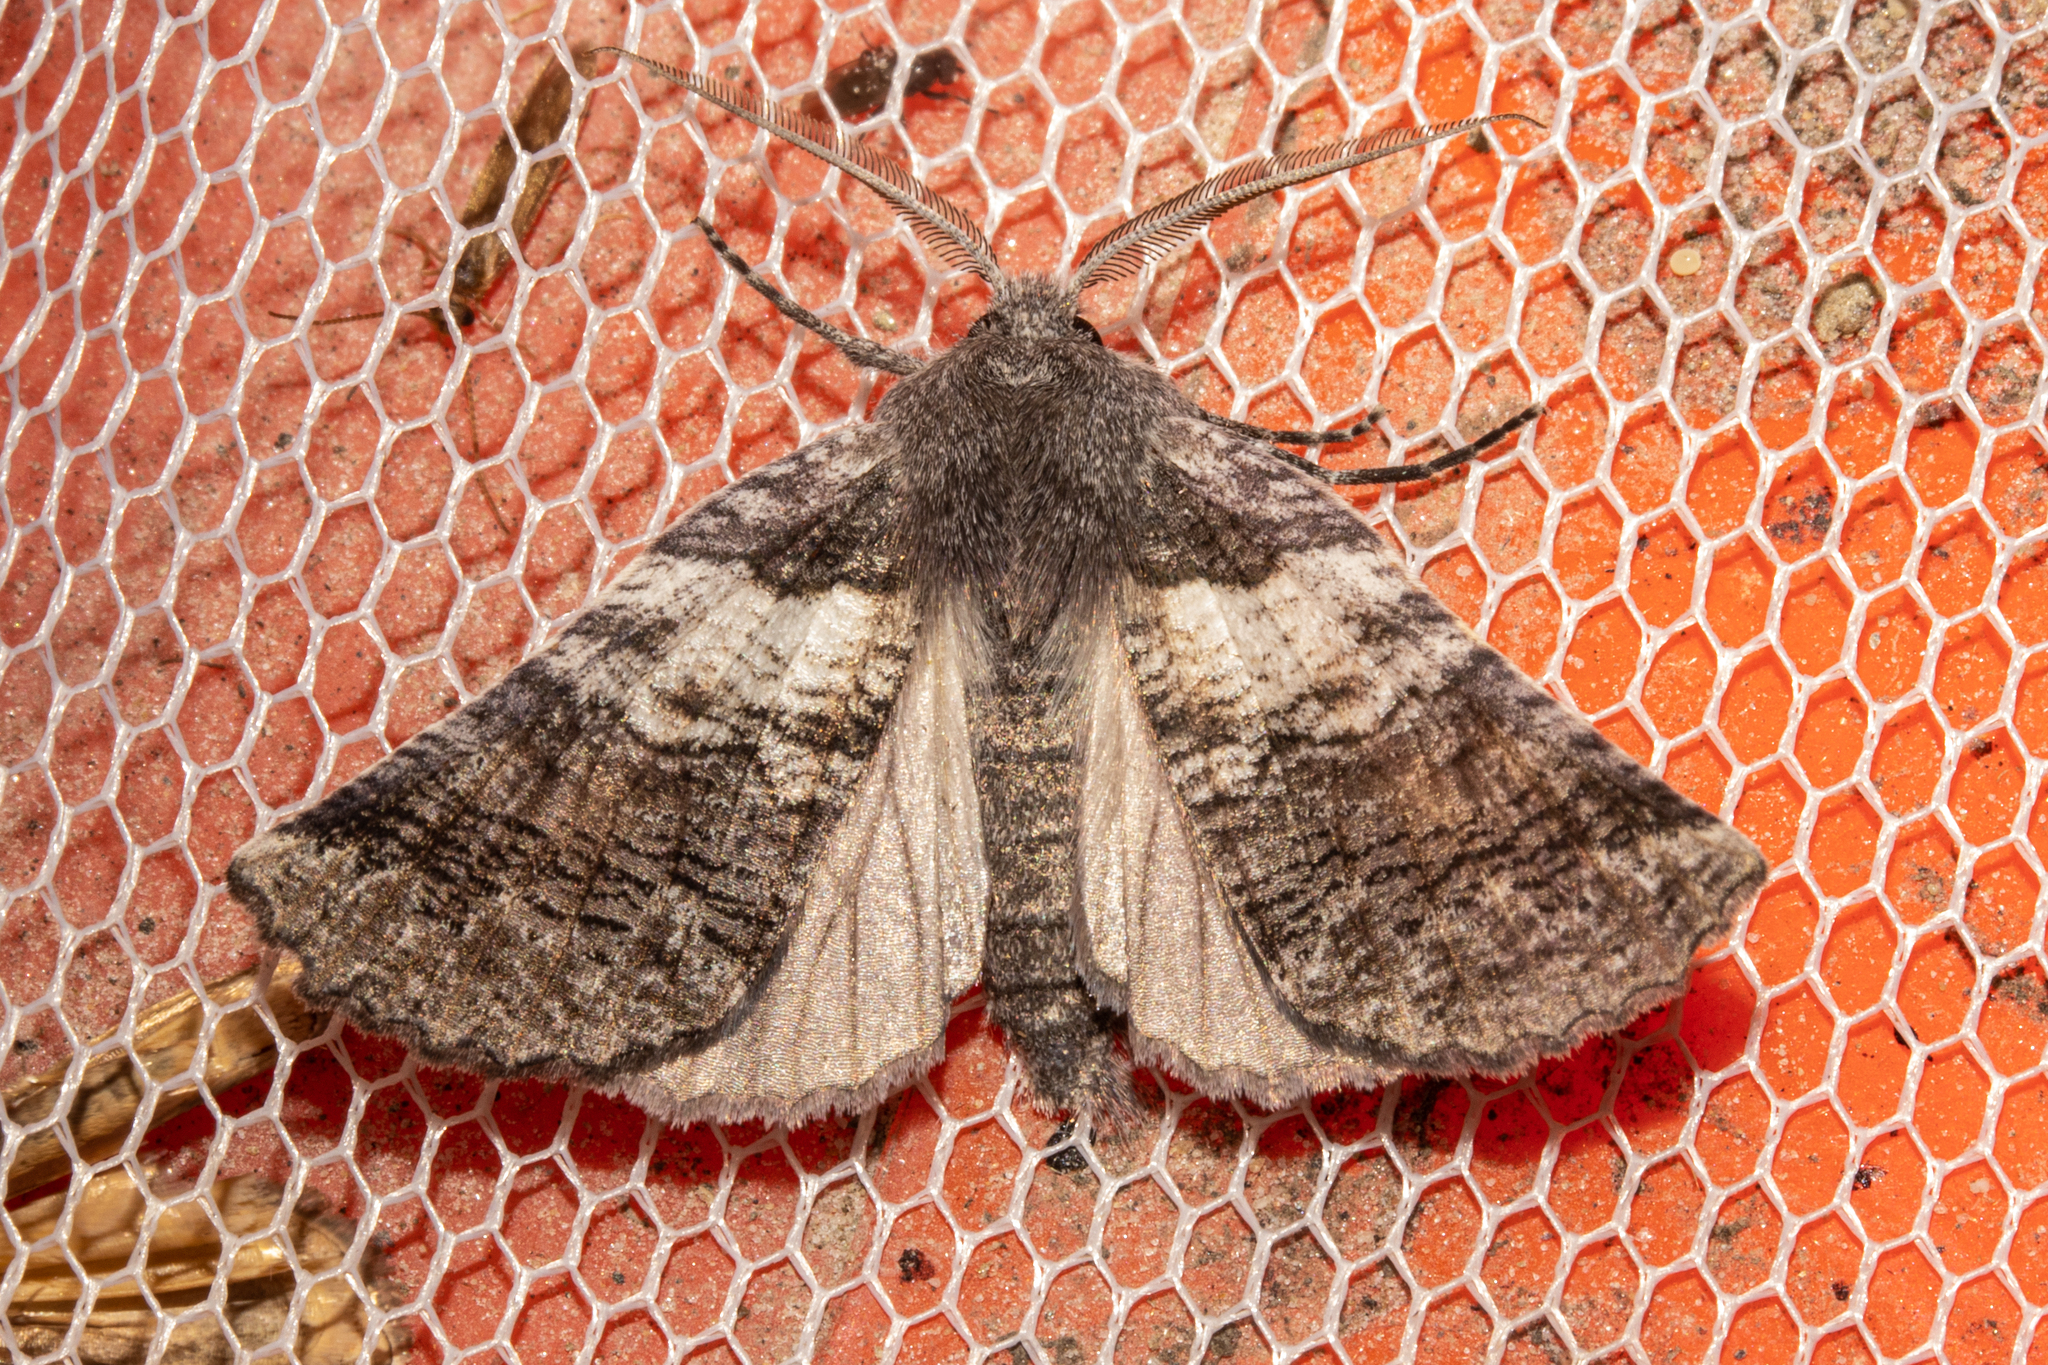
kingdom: Animalia
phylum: Arthropoda
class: Insecta
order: Lepidoptera
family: Geometridae
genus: Declana
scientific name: Declana
